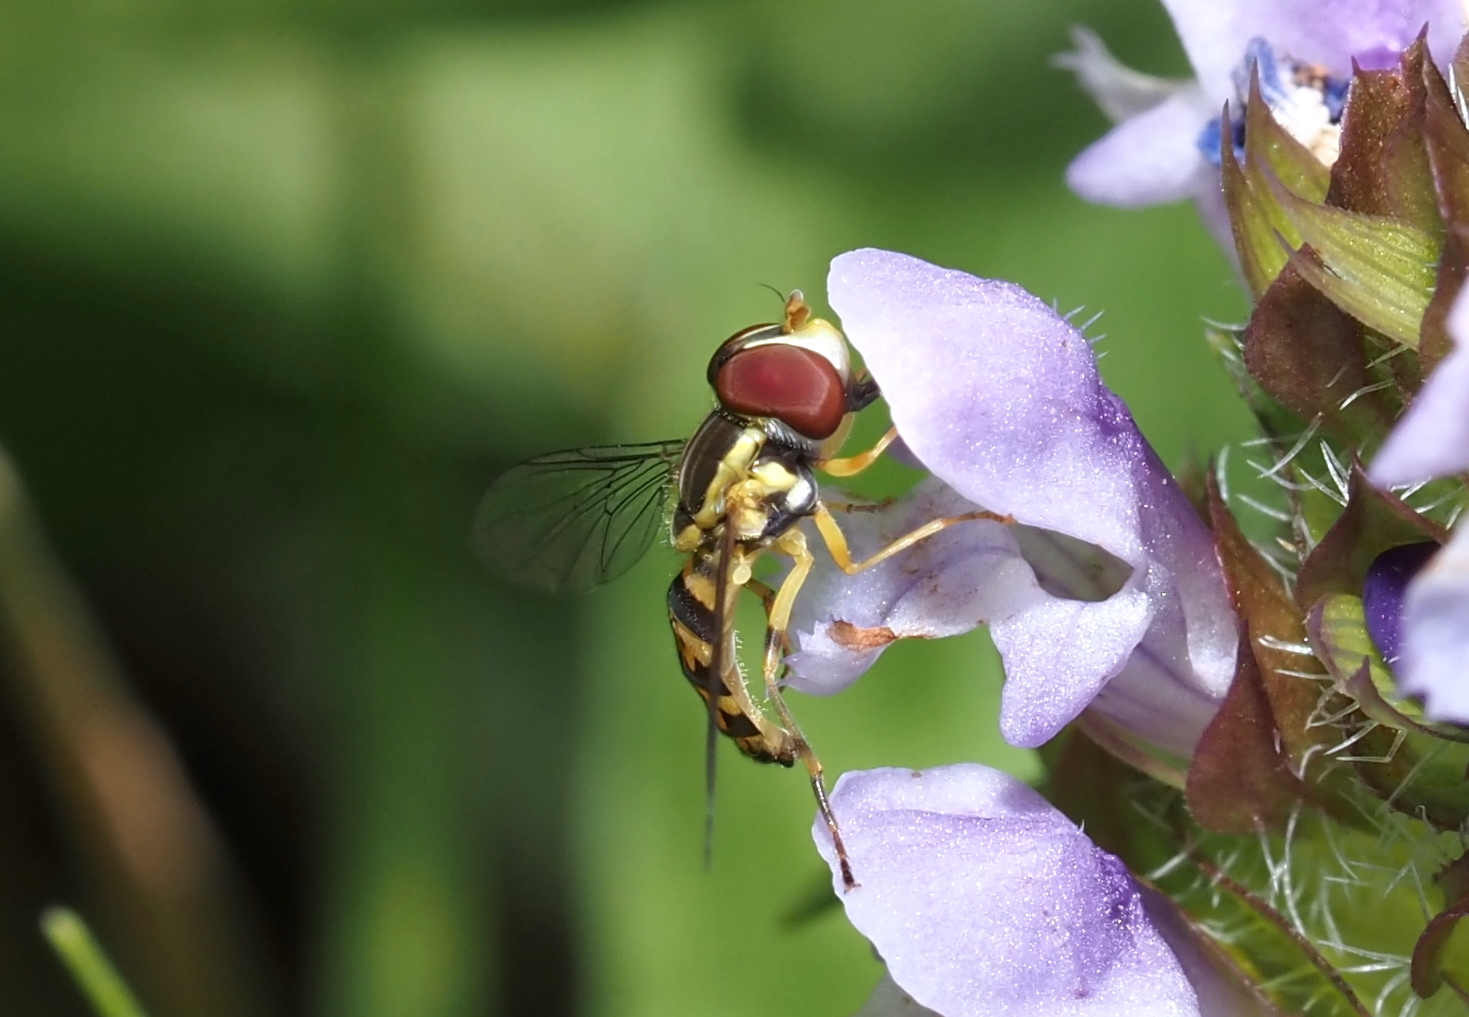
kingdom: Animalia
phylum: Arthropoda
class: Insecta
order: Diptera
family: Syrphidae
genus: Toxomerus
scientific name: Toxomerus geminatus
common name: Eastern calligrapher
